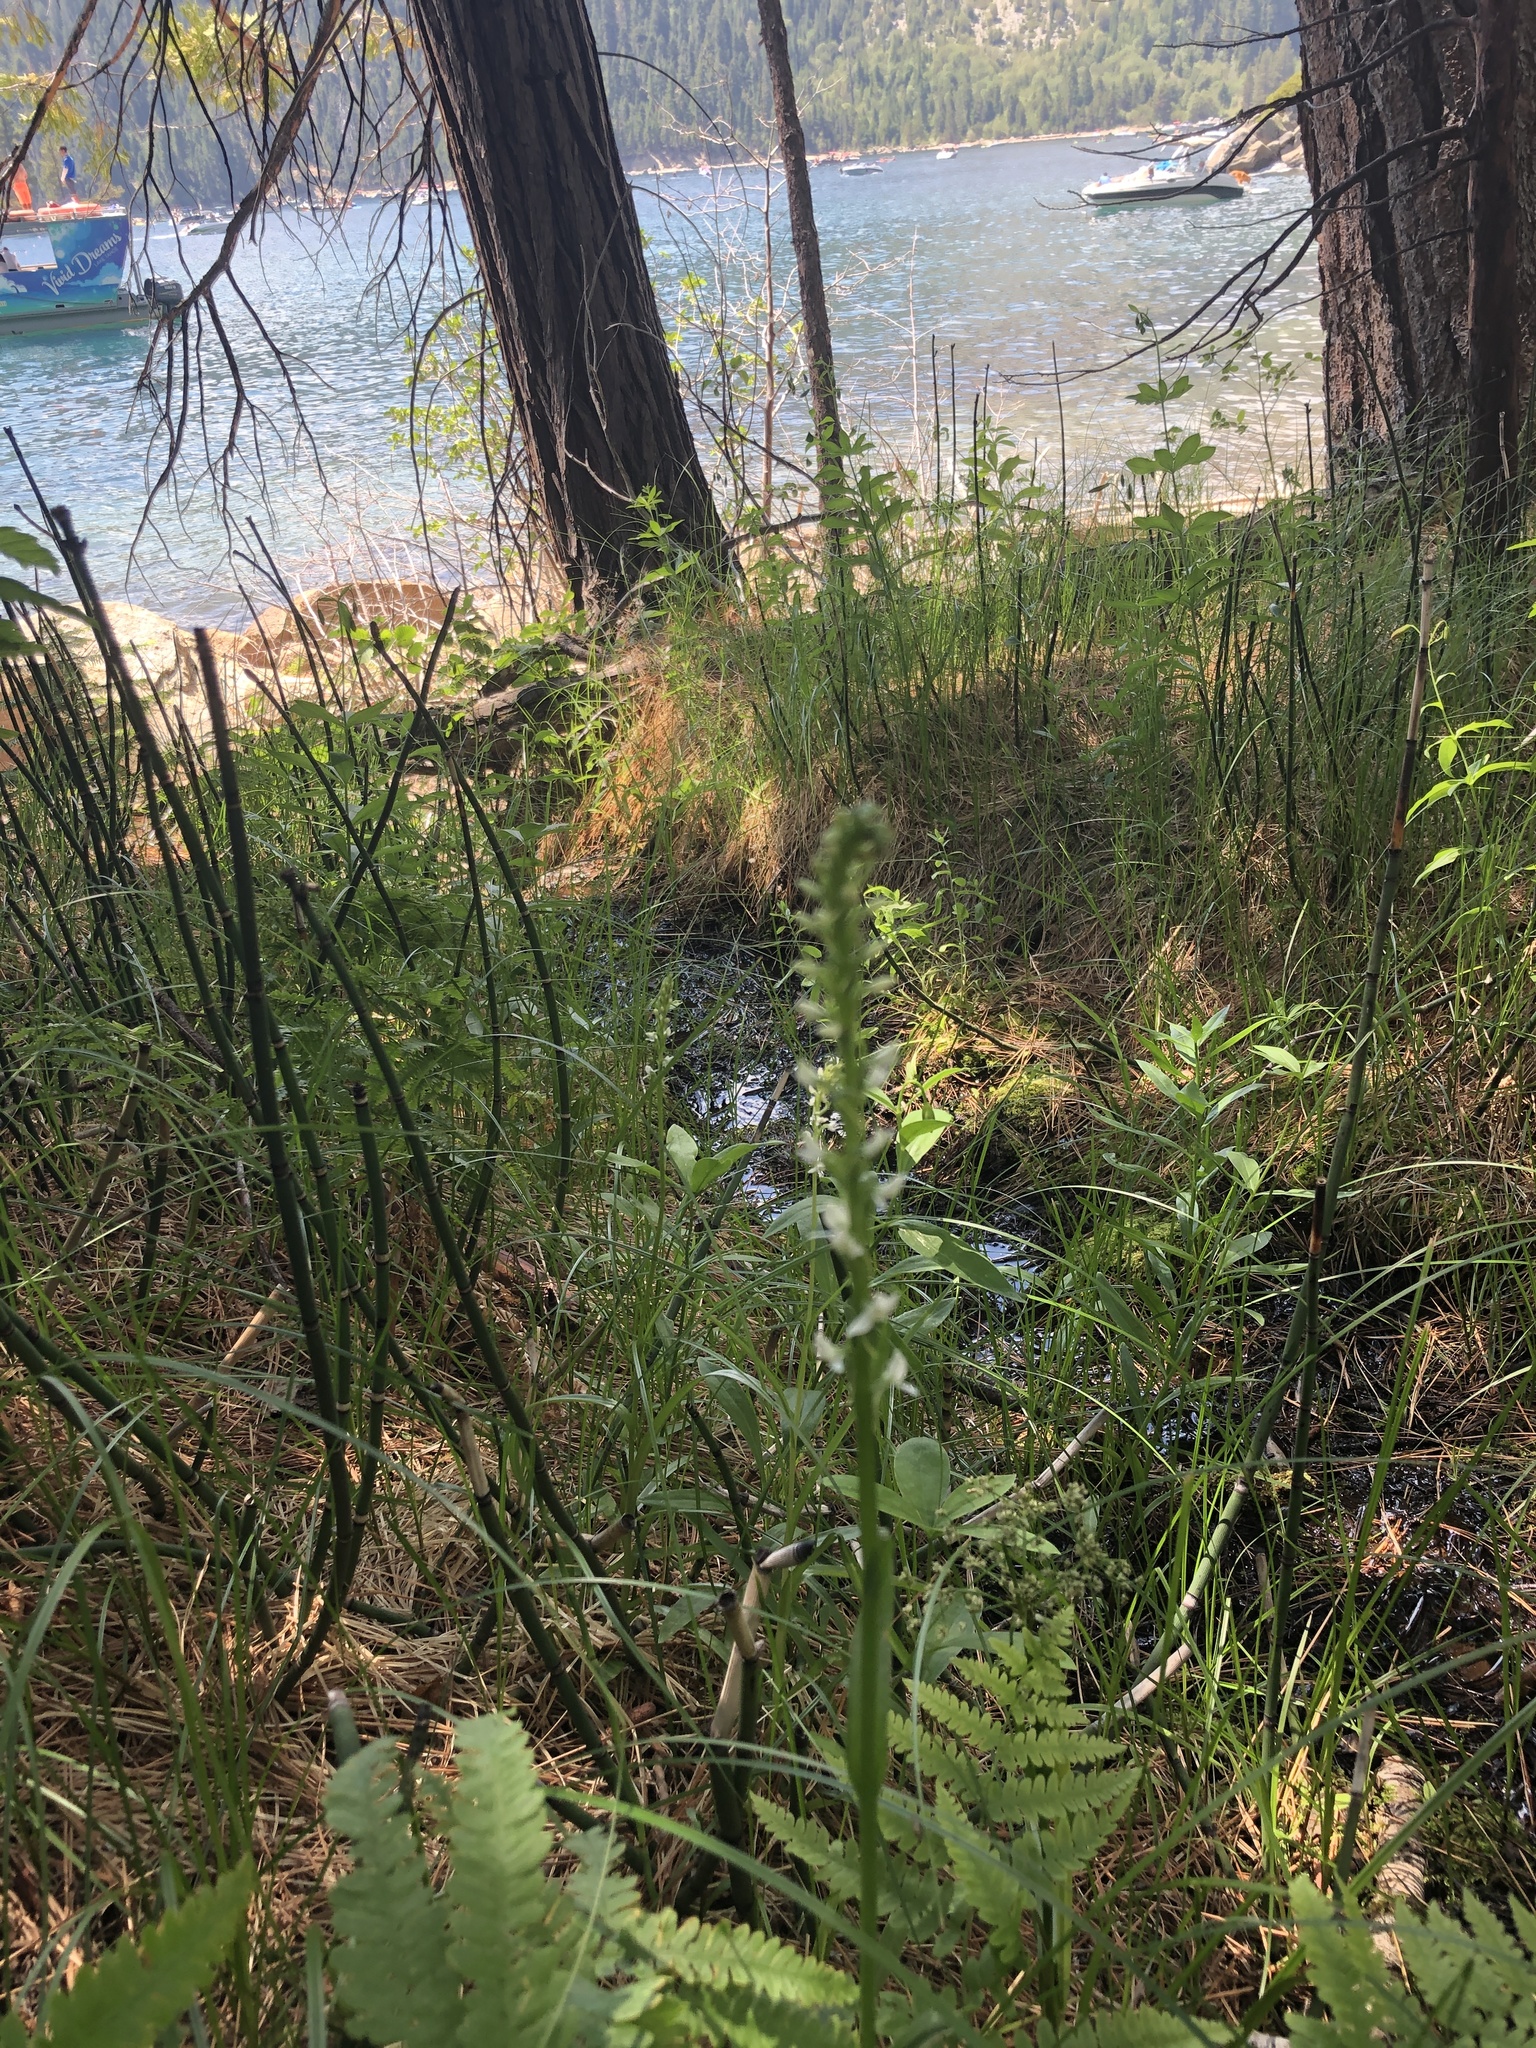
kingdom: Plantae
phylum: Tracheophyta
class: Liliopsida
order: Asparagales
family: Orchidaceae
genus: Platanthera
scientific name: Platanthera dilatata
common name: Bog candles
